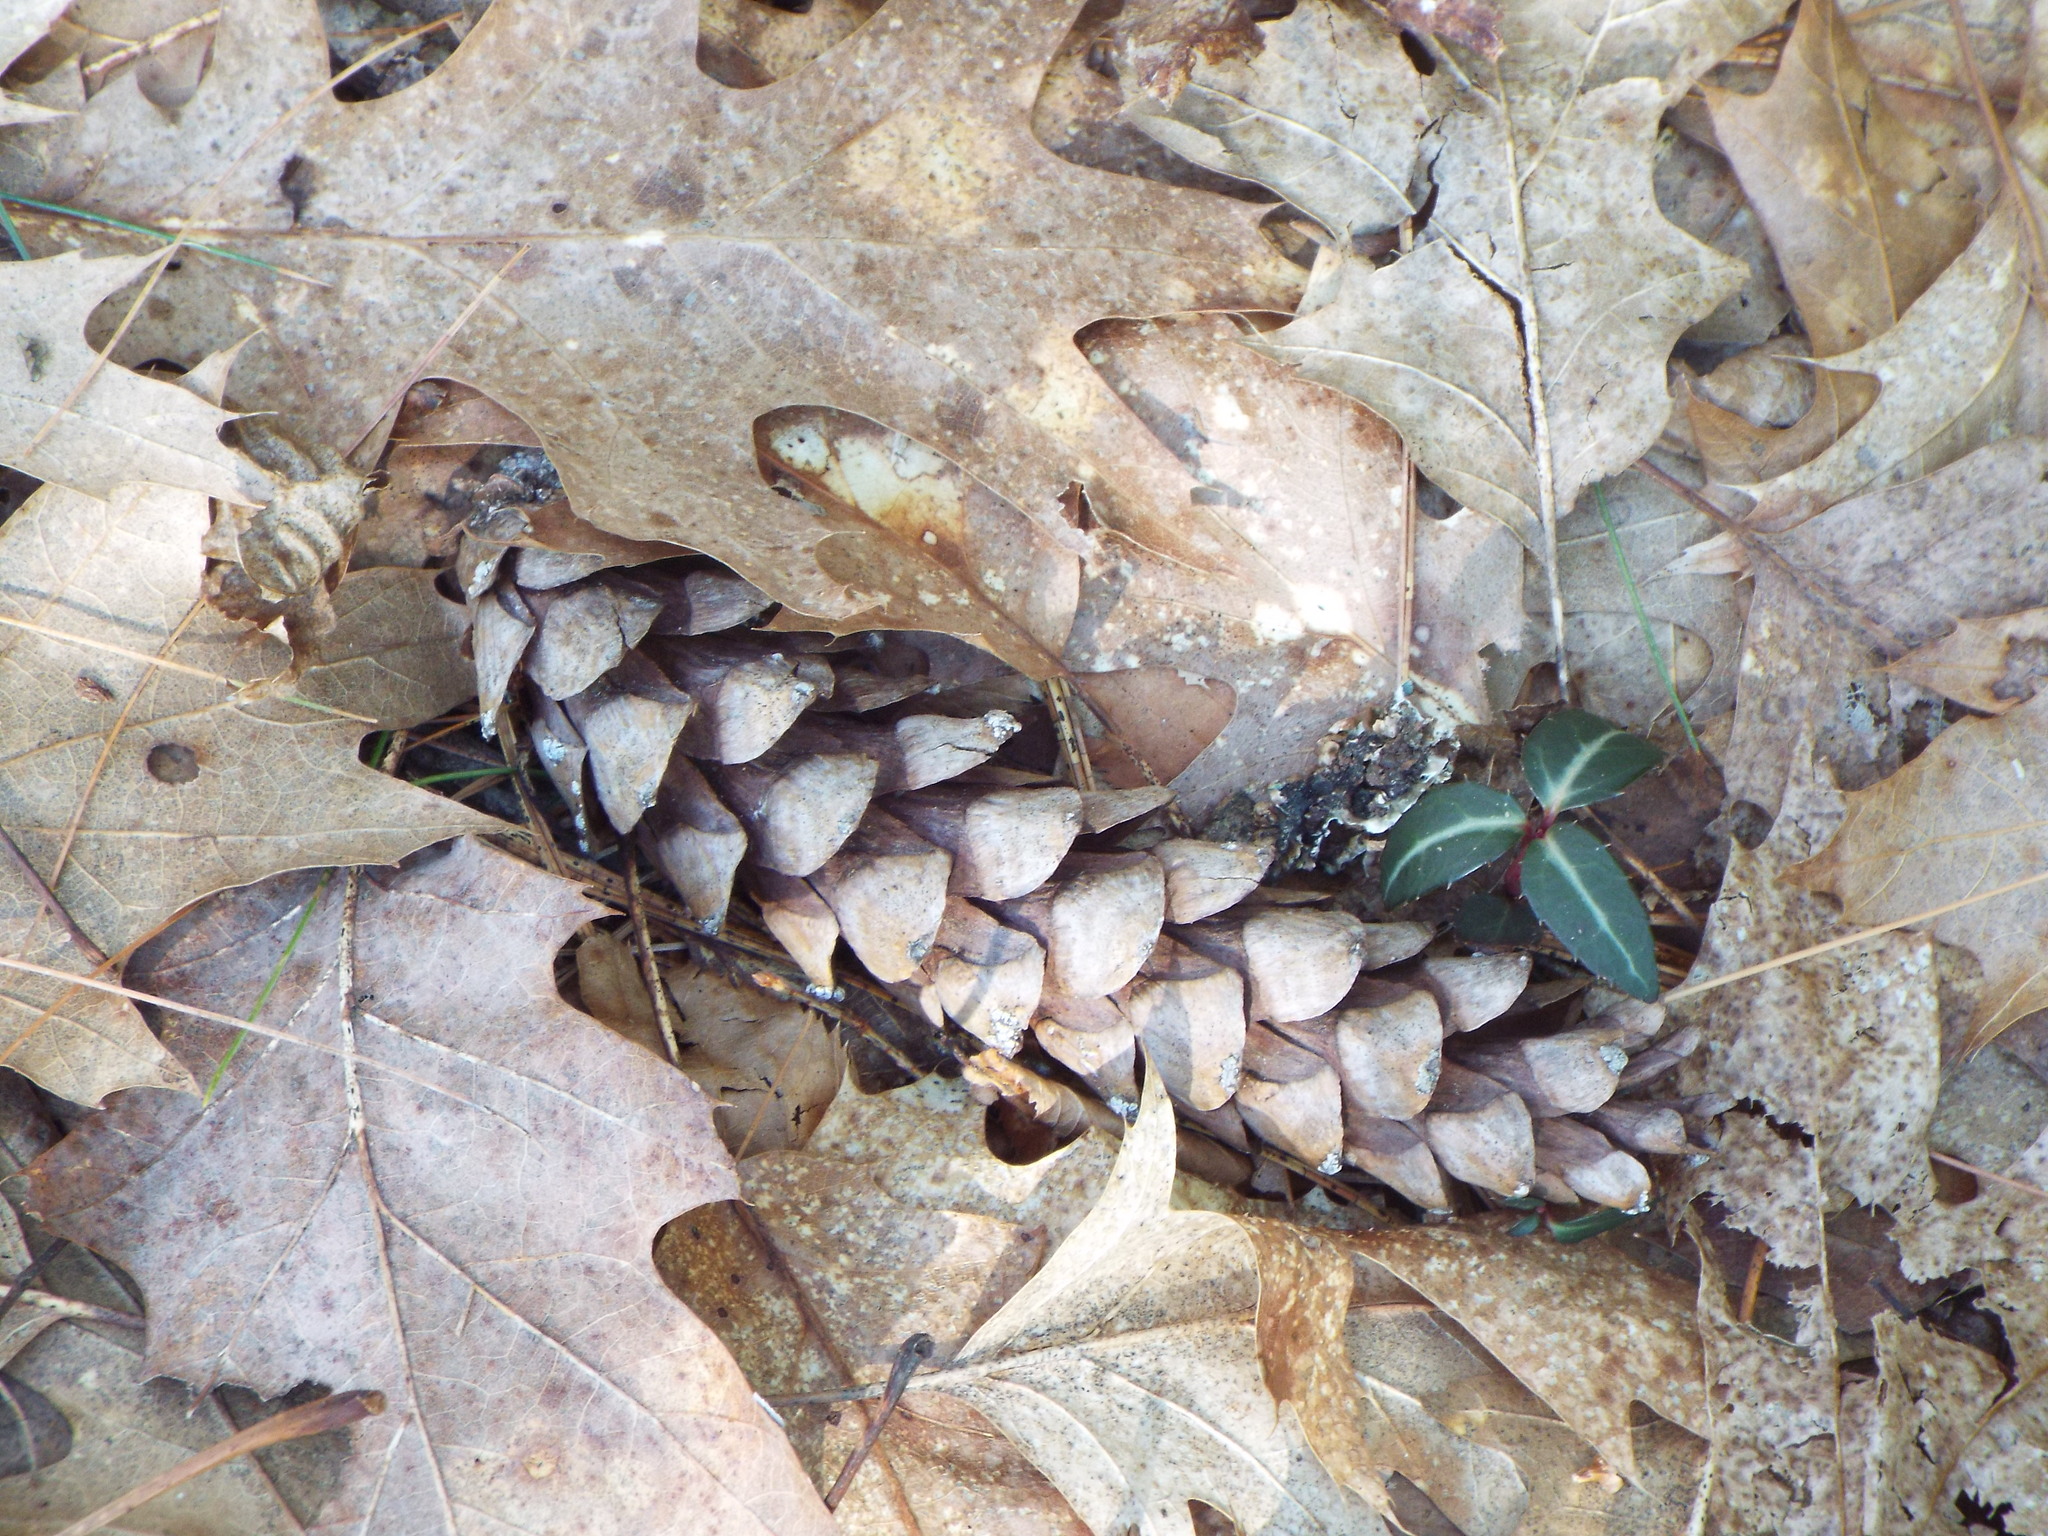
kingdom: Plantae
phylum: Tracheophyta
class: Pinopsida
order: Pinales
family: Pinaceae
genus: Pinus
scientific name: Pinus strobus
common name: Weymouth pine
